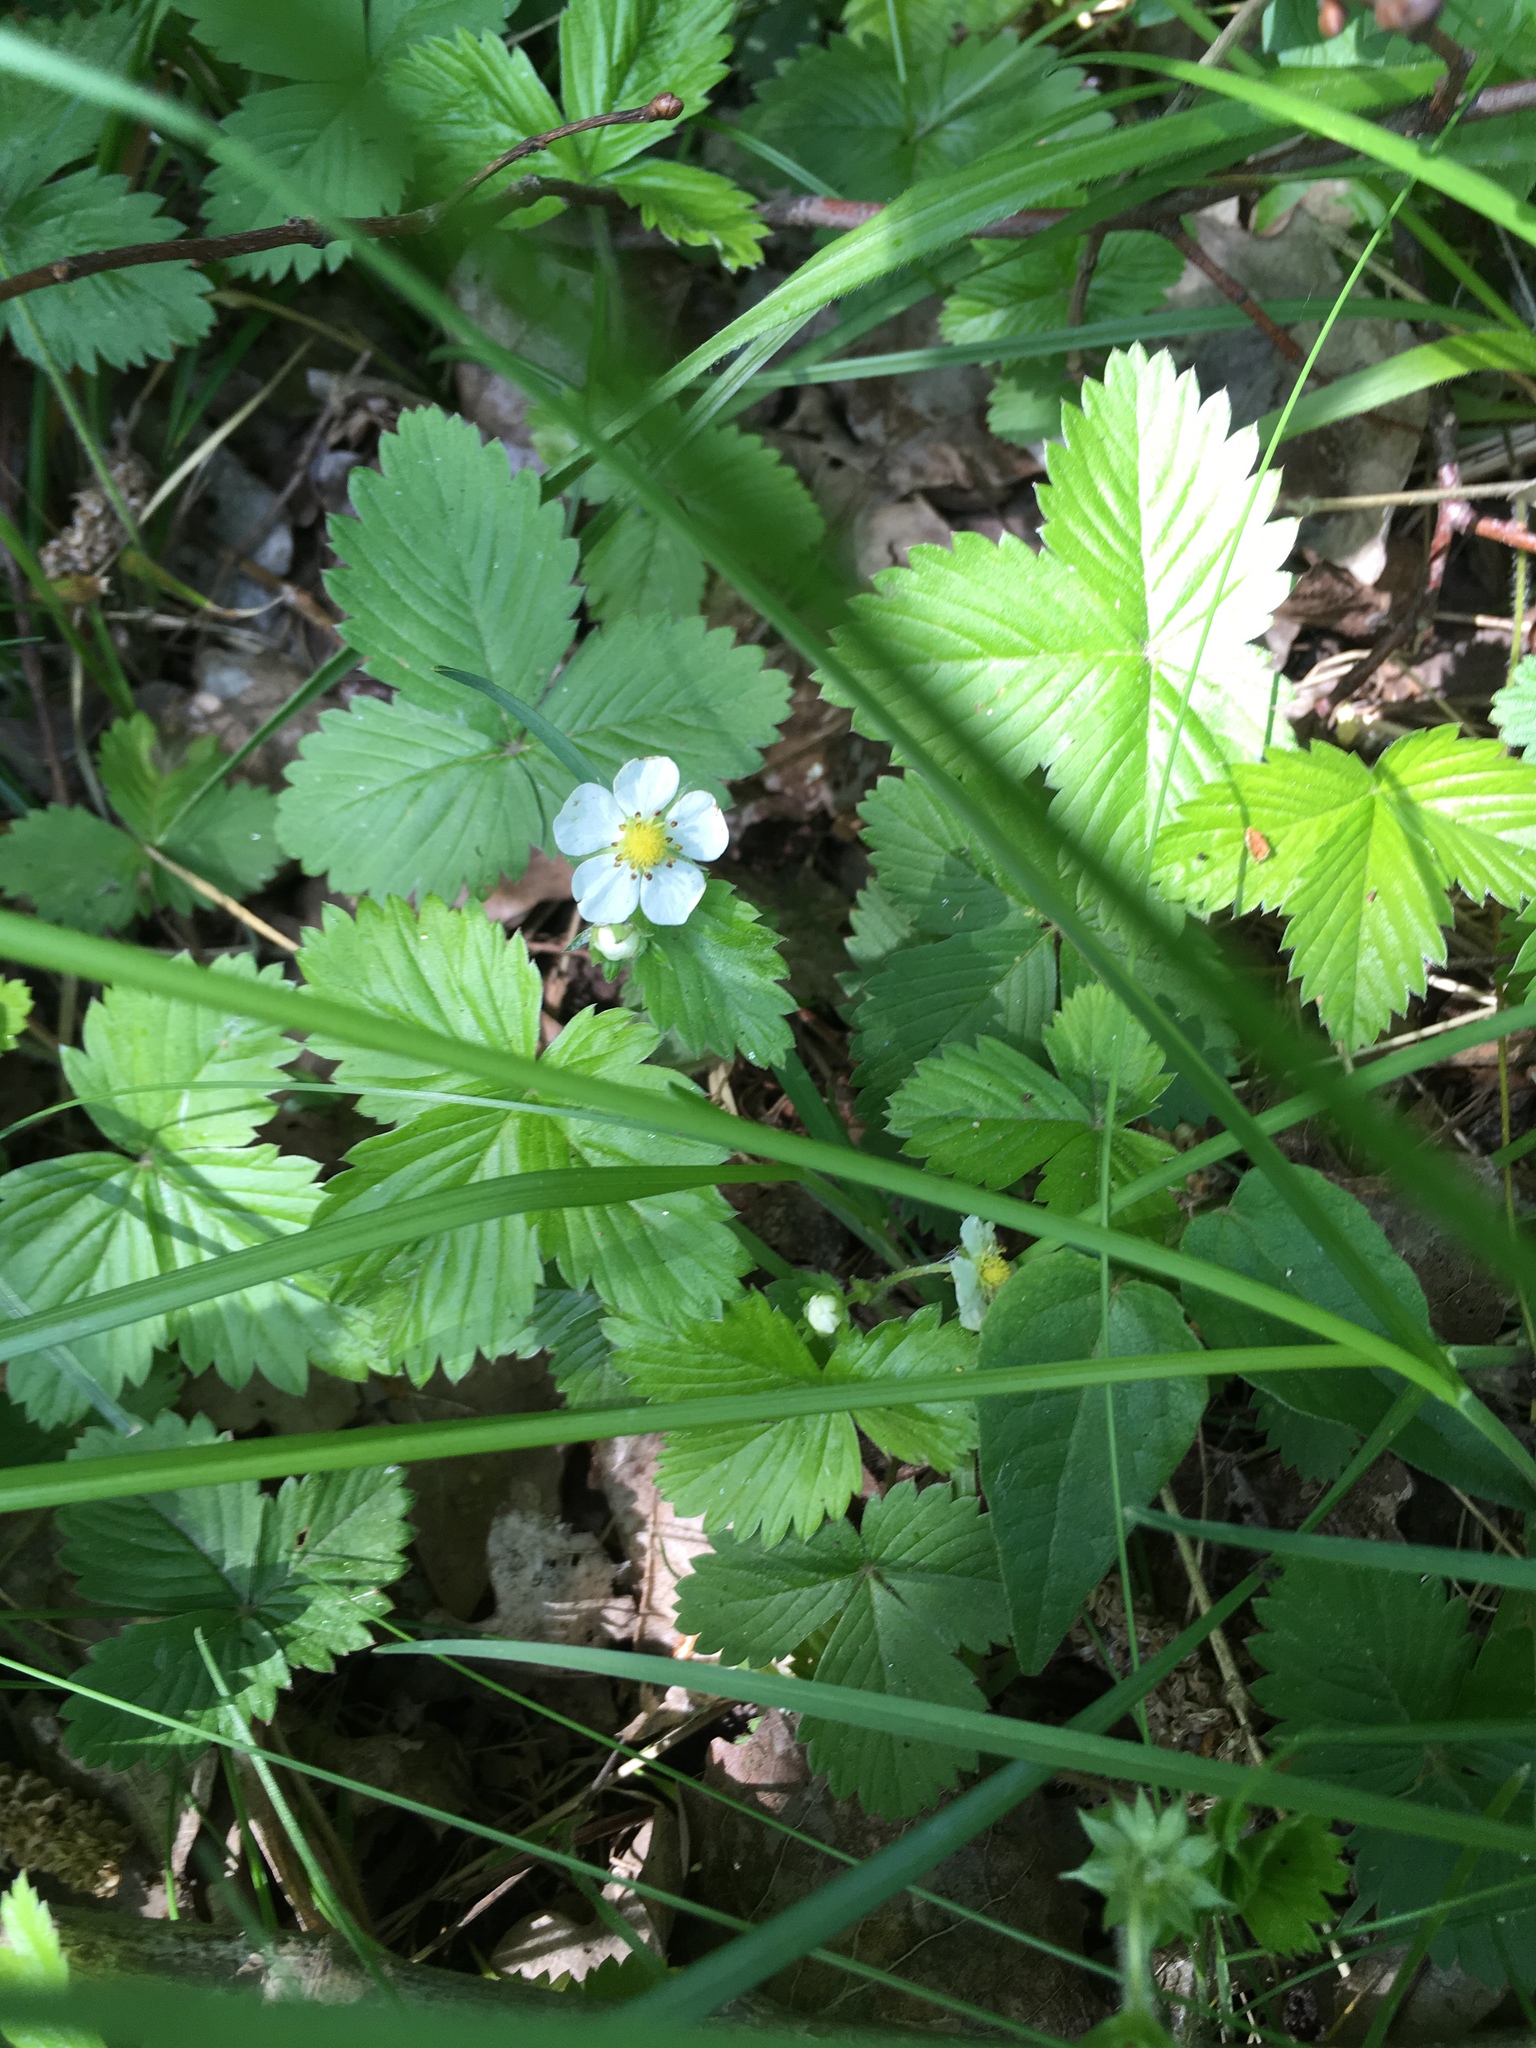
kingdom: Plantae
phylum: Tracheophyta
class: Magnoliopsida
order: Rosales
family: Rosaceae
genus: Fragaria
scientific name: Fragaria vesca
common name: Wild strawberry
